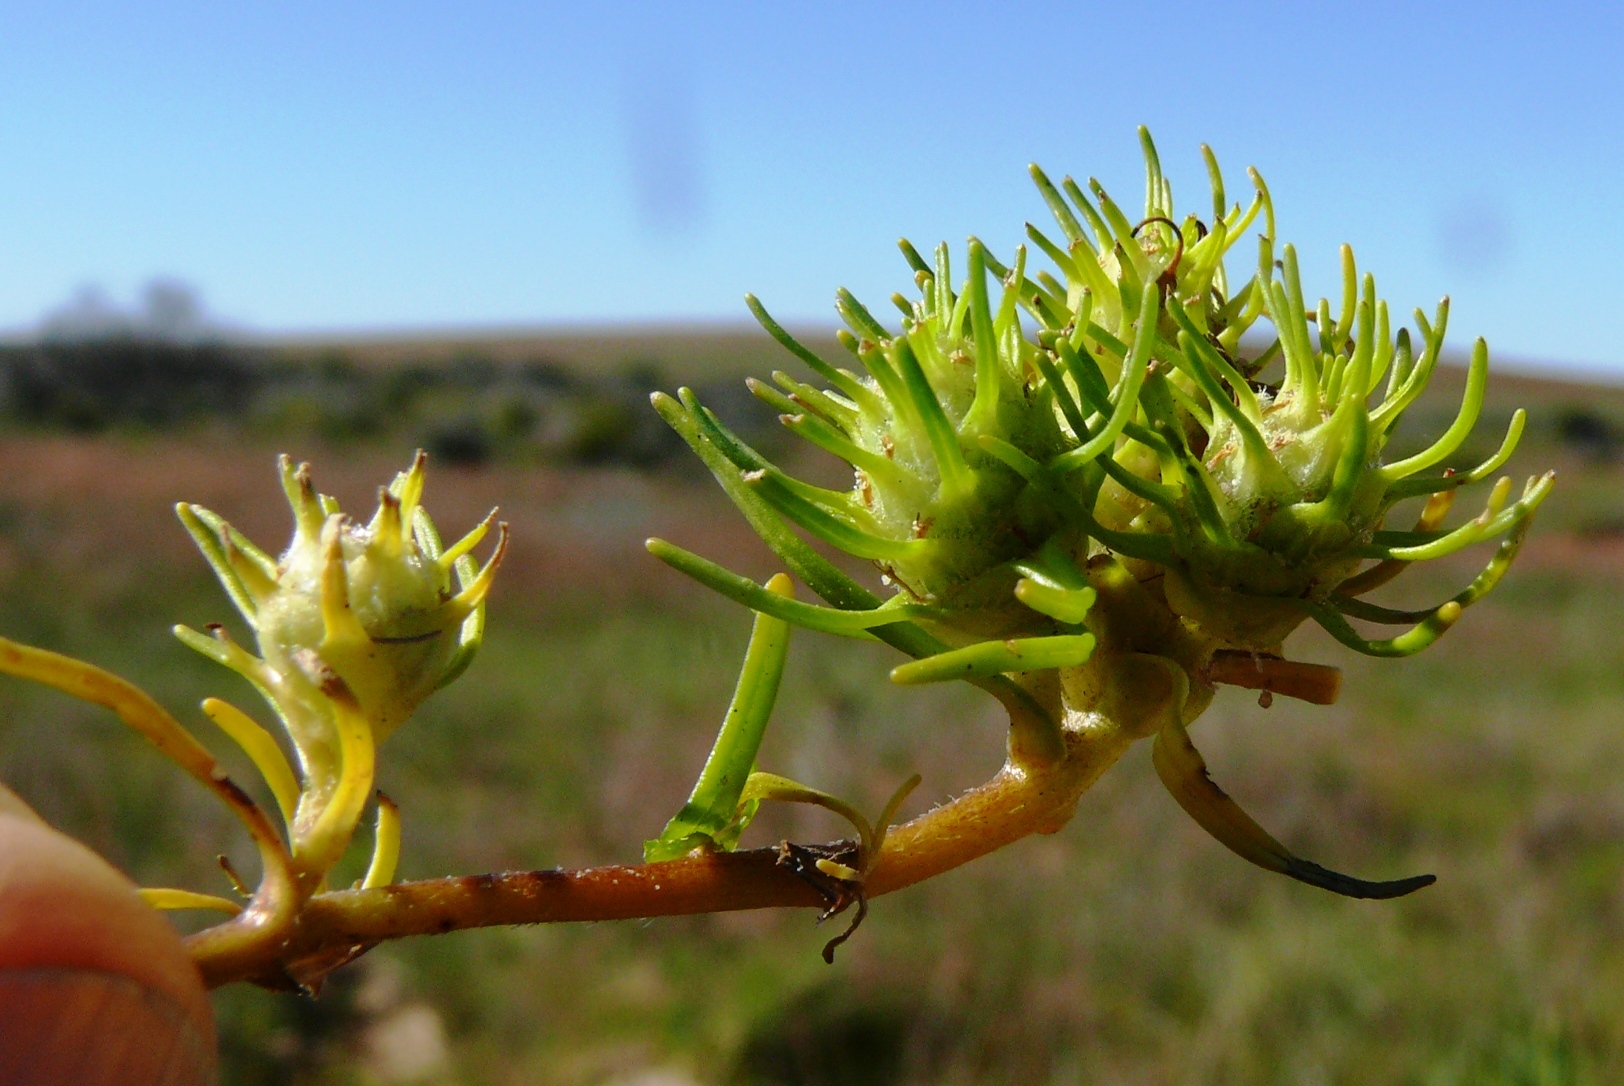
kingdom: Plantae
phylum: Tracheophyta
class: Magnoliopsida
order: Lamiales
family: Scrophulariaceae
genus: Dischisma
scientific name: Dischisma capitatum
